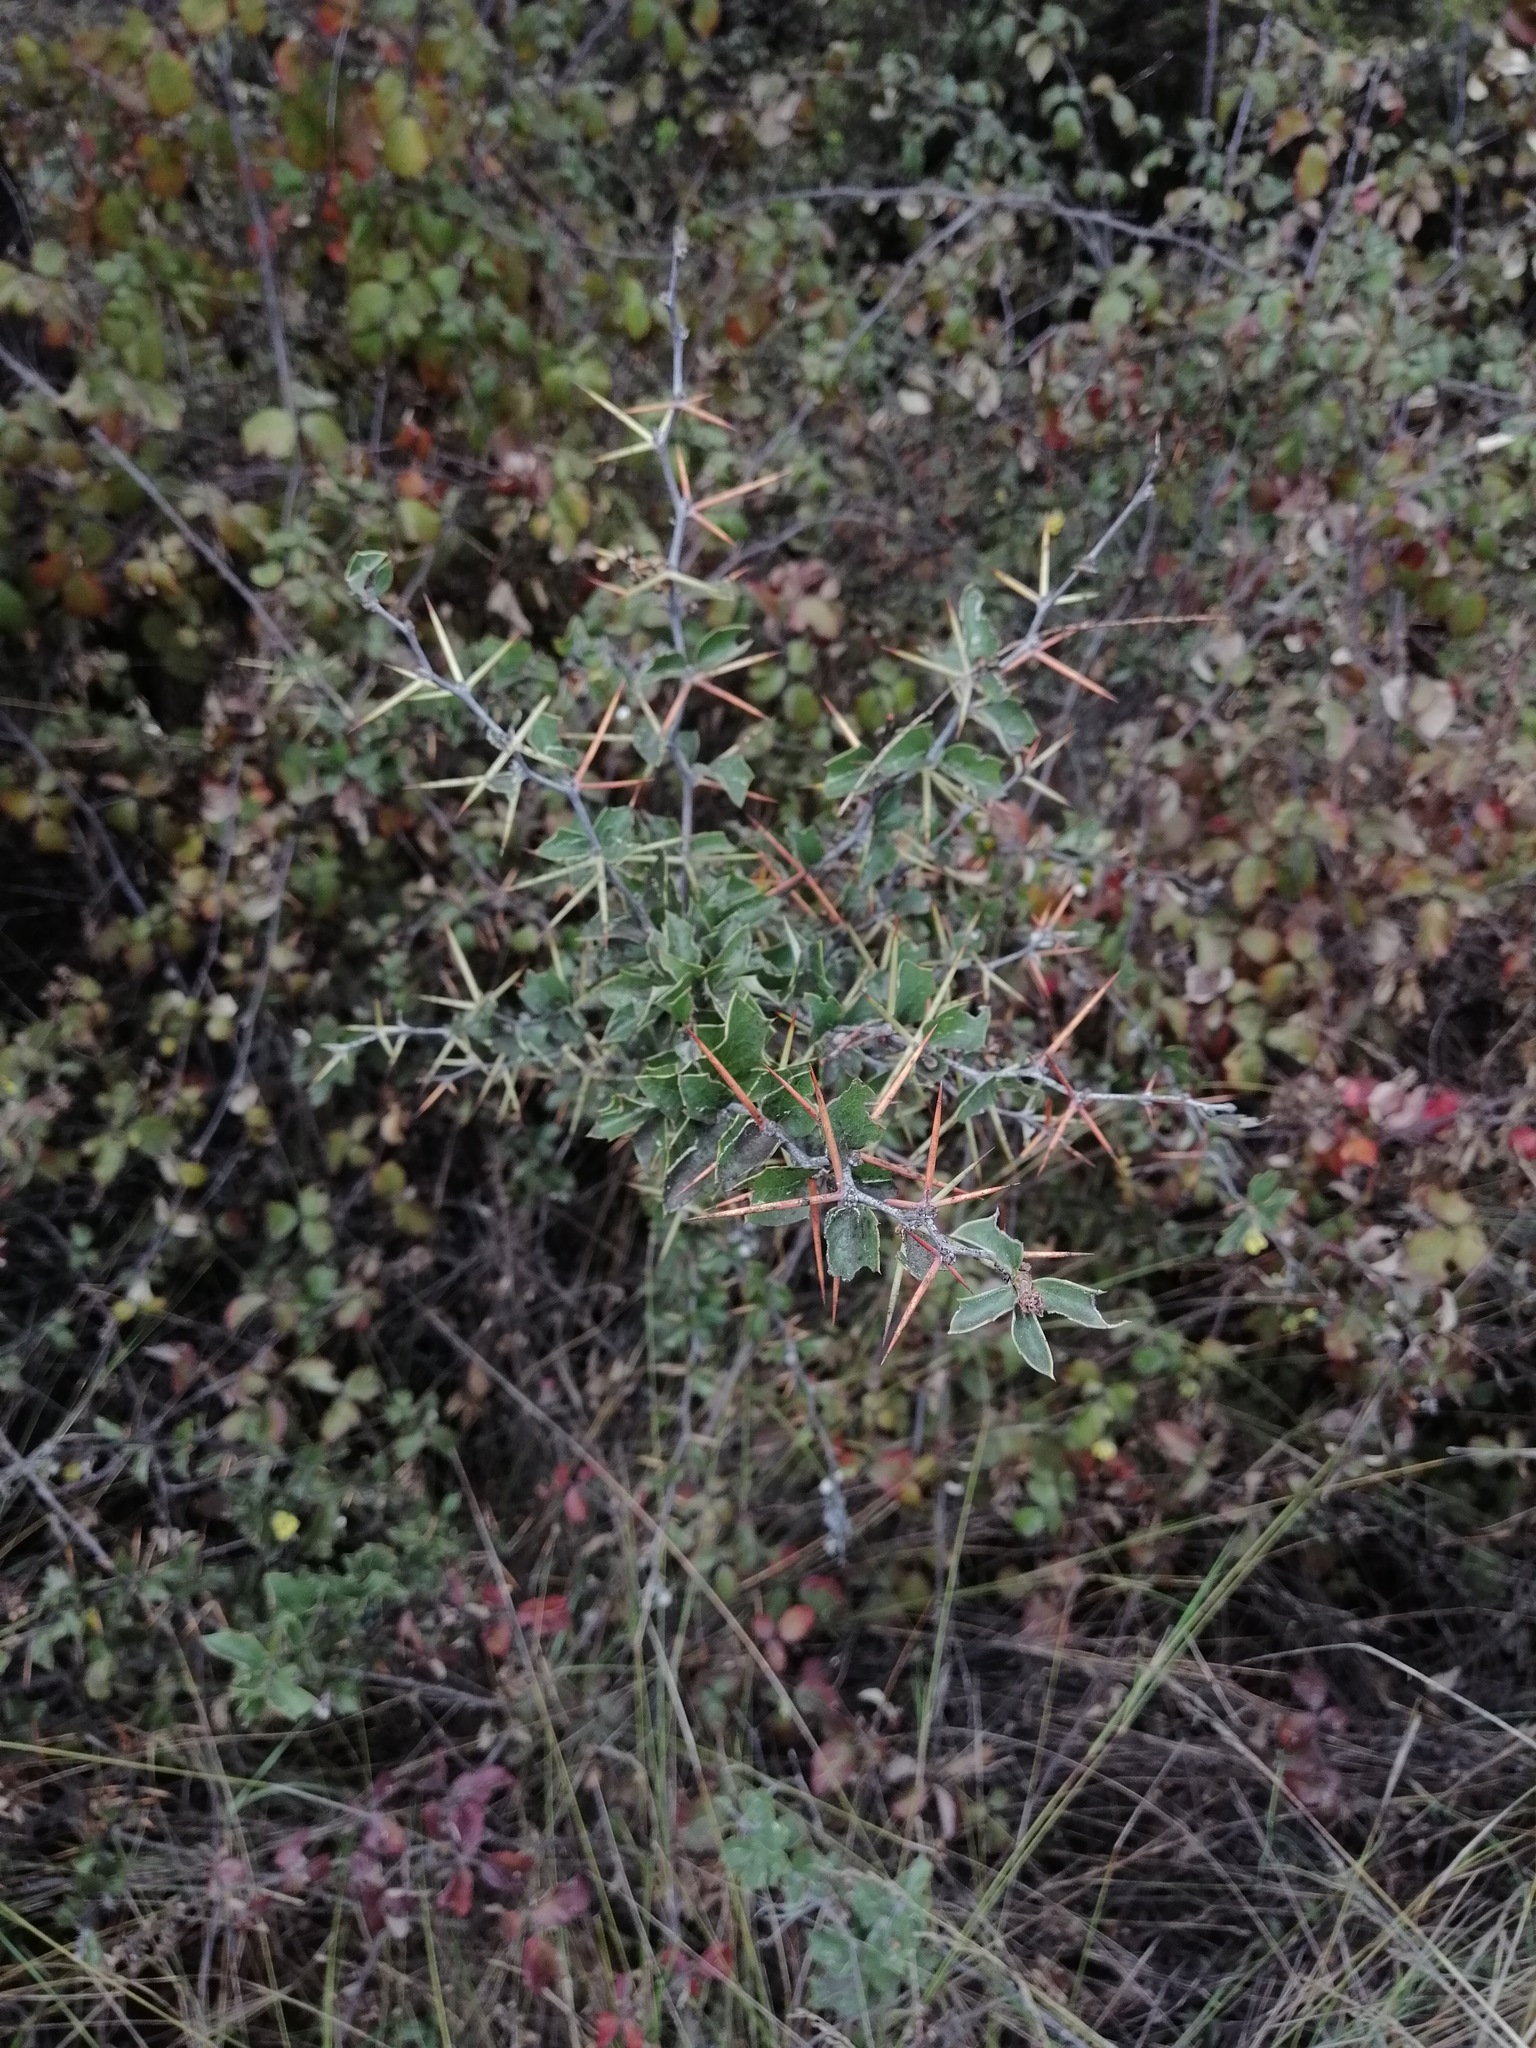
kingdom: Plantae
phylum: Tracheophyta
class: Magnoliopsida
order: Ranunculales
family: Berberidaceae
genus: Berberis
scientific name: Berberis chilensis
